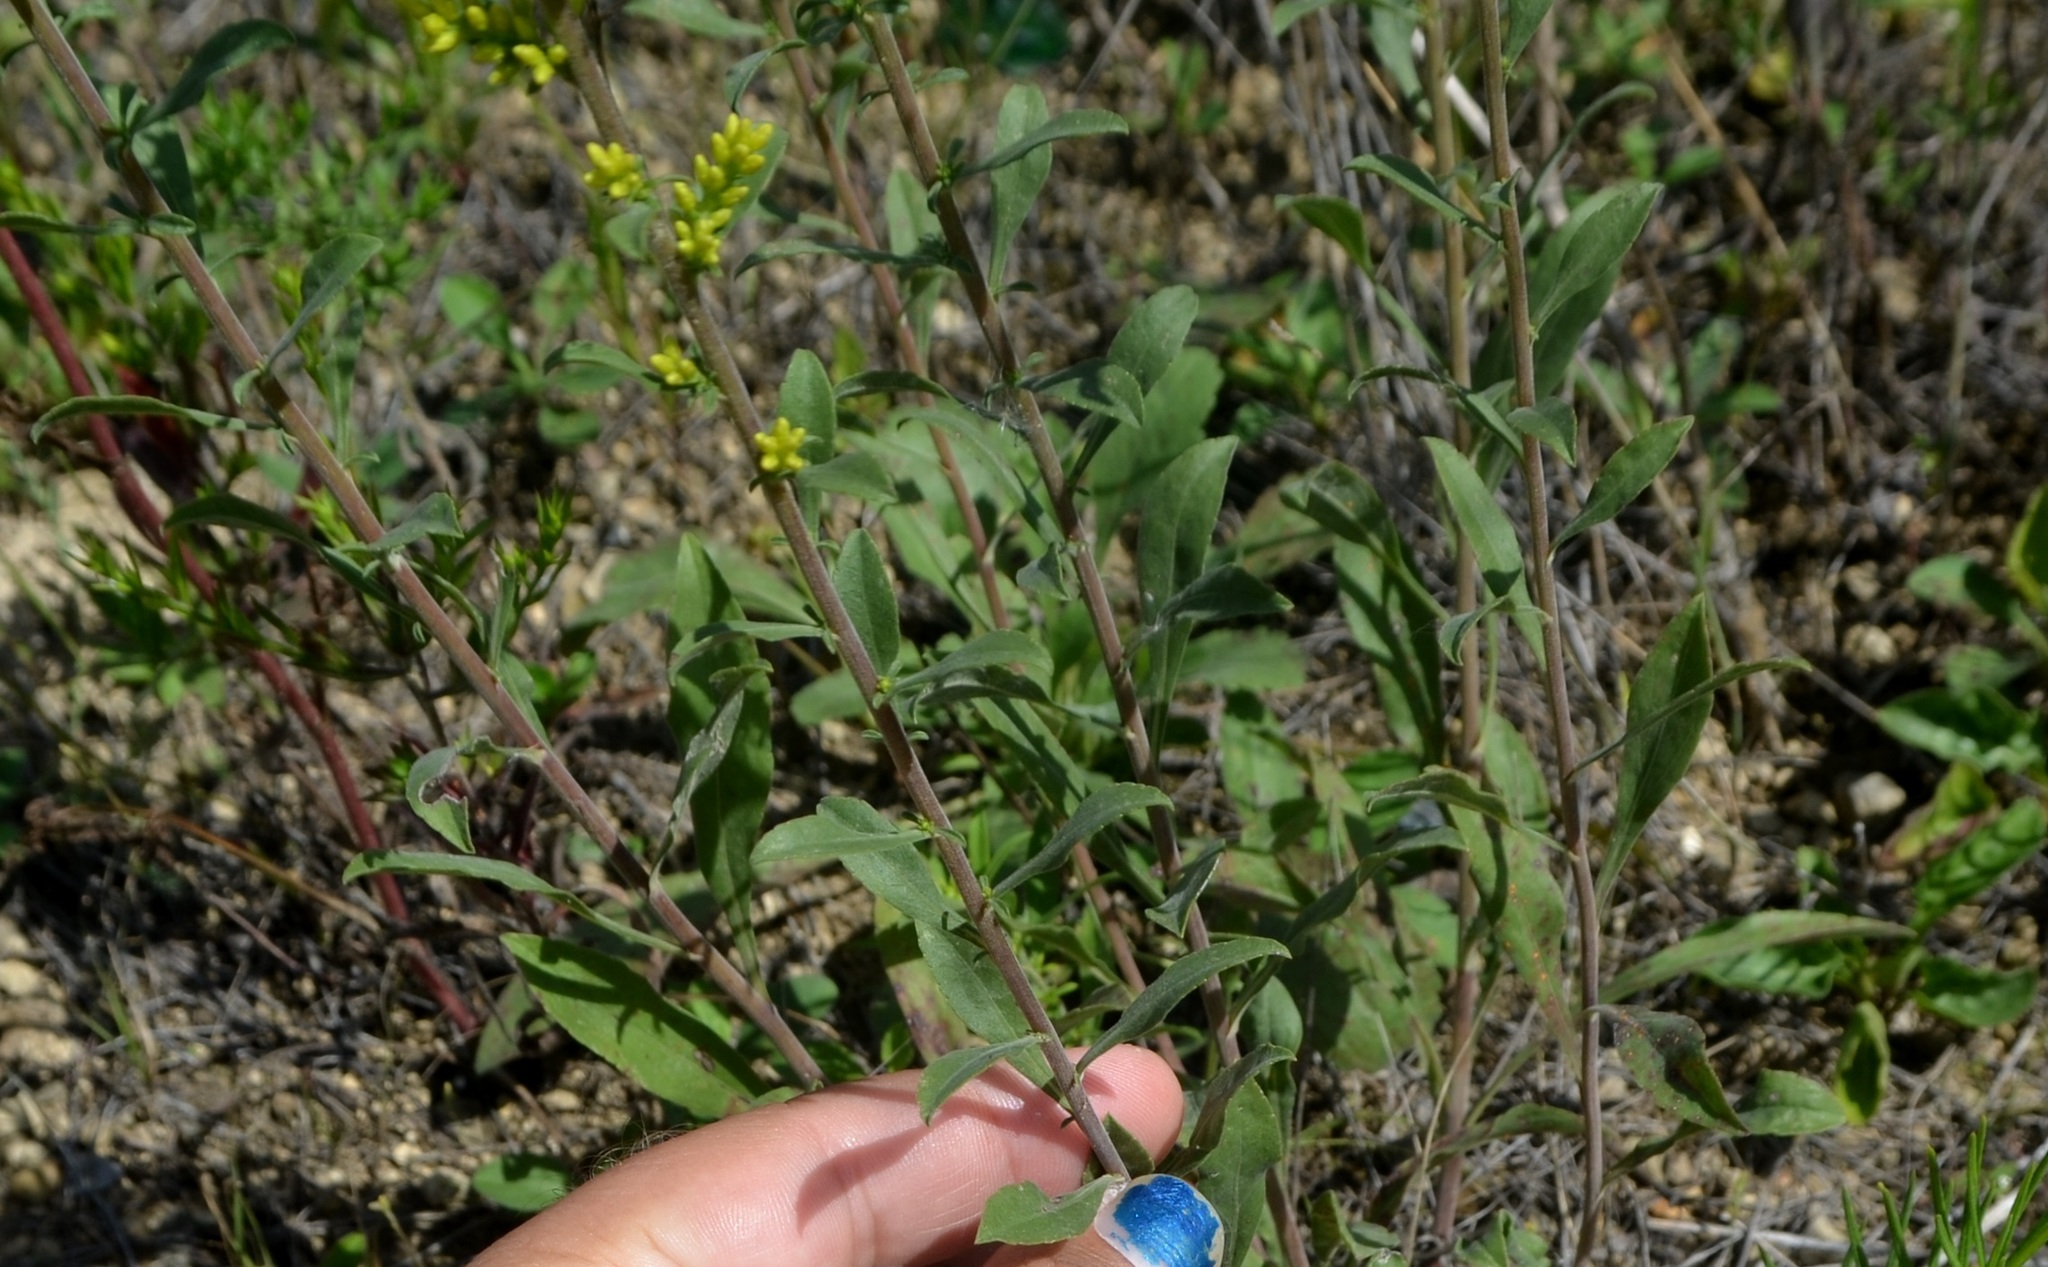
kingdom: Plantae
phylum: Tracheophyta
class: Magnoliopsida
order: Asterales
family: Asteraceae
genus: Solidago
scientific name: Solidago nemoralis
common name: Grey goldenrod
